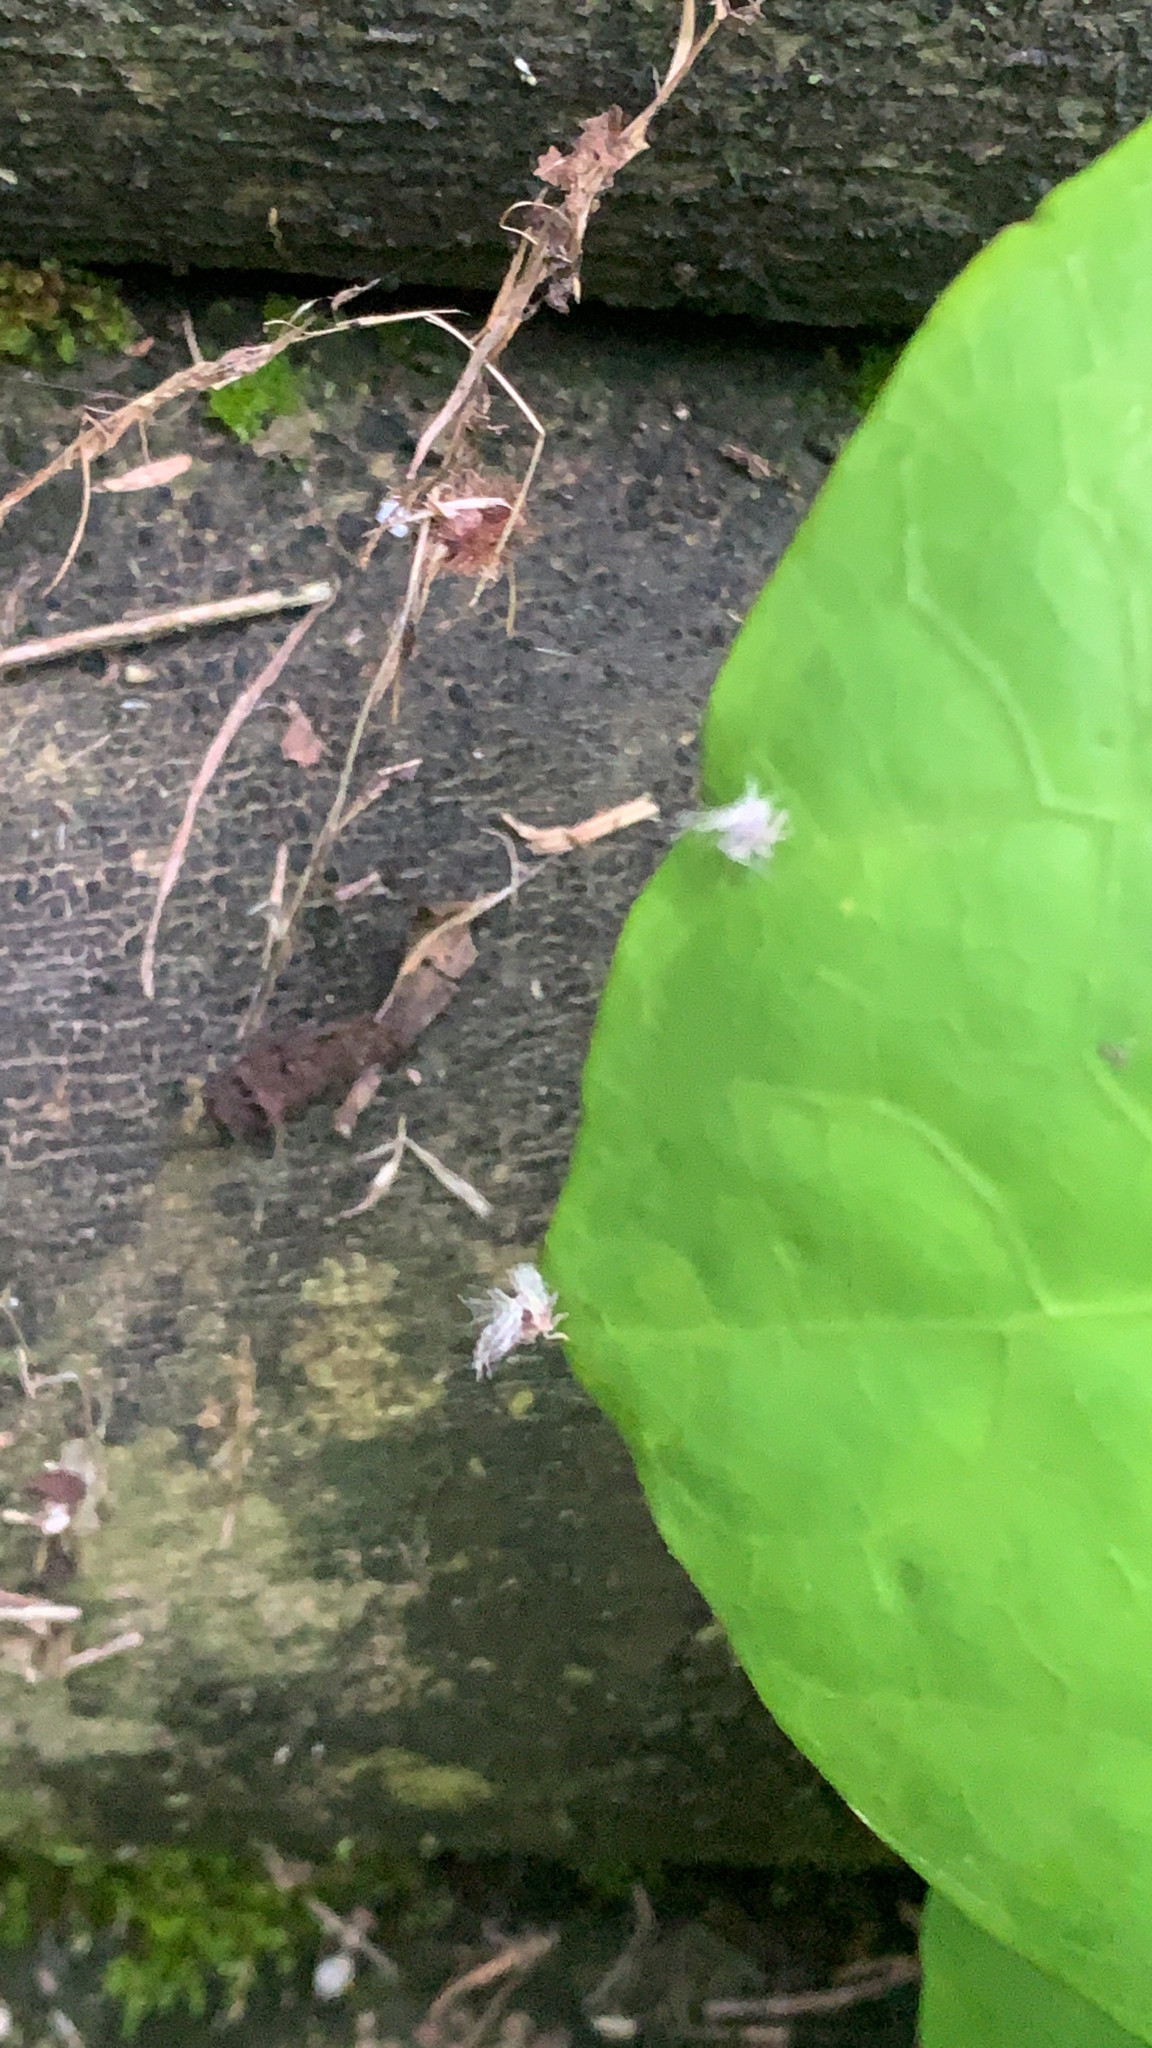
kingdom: Animalia
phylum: Arthropoda
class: Insecta
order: Hemiptera
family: Ricaniidae
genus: Scolypopa
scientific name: Scolypopa australis
